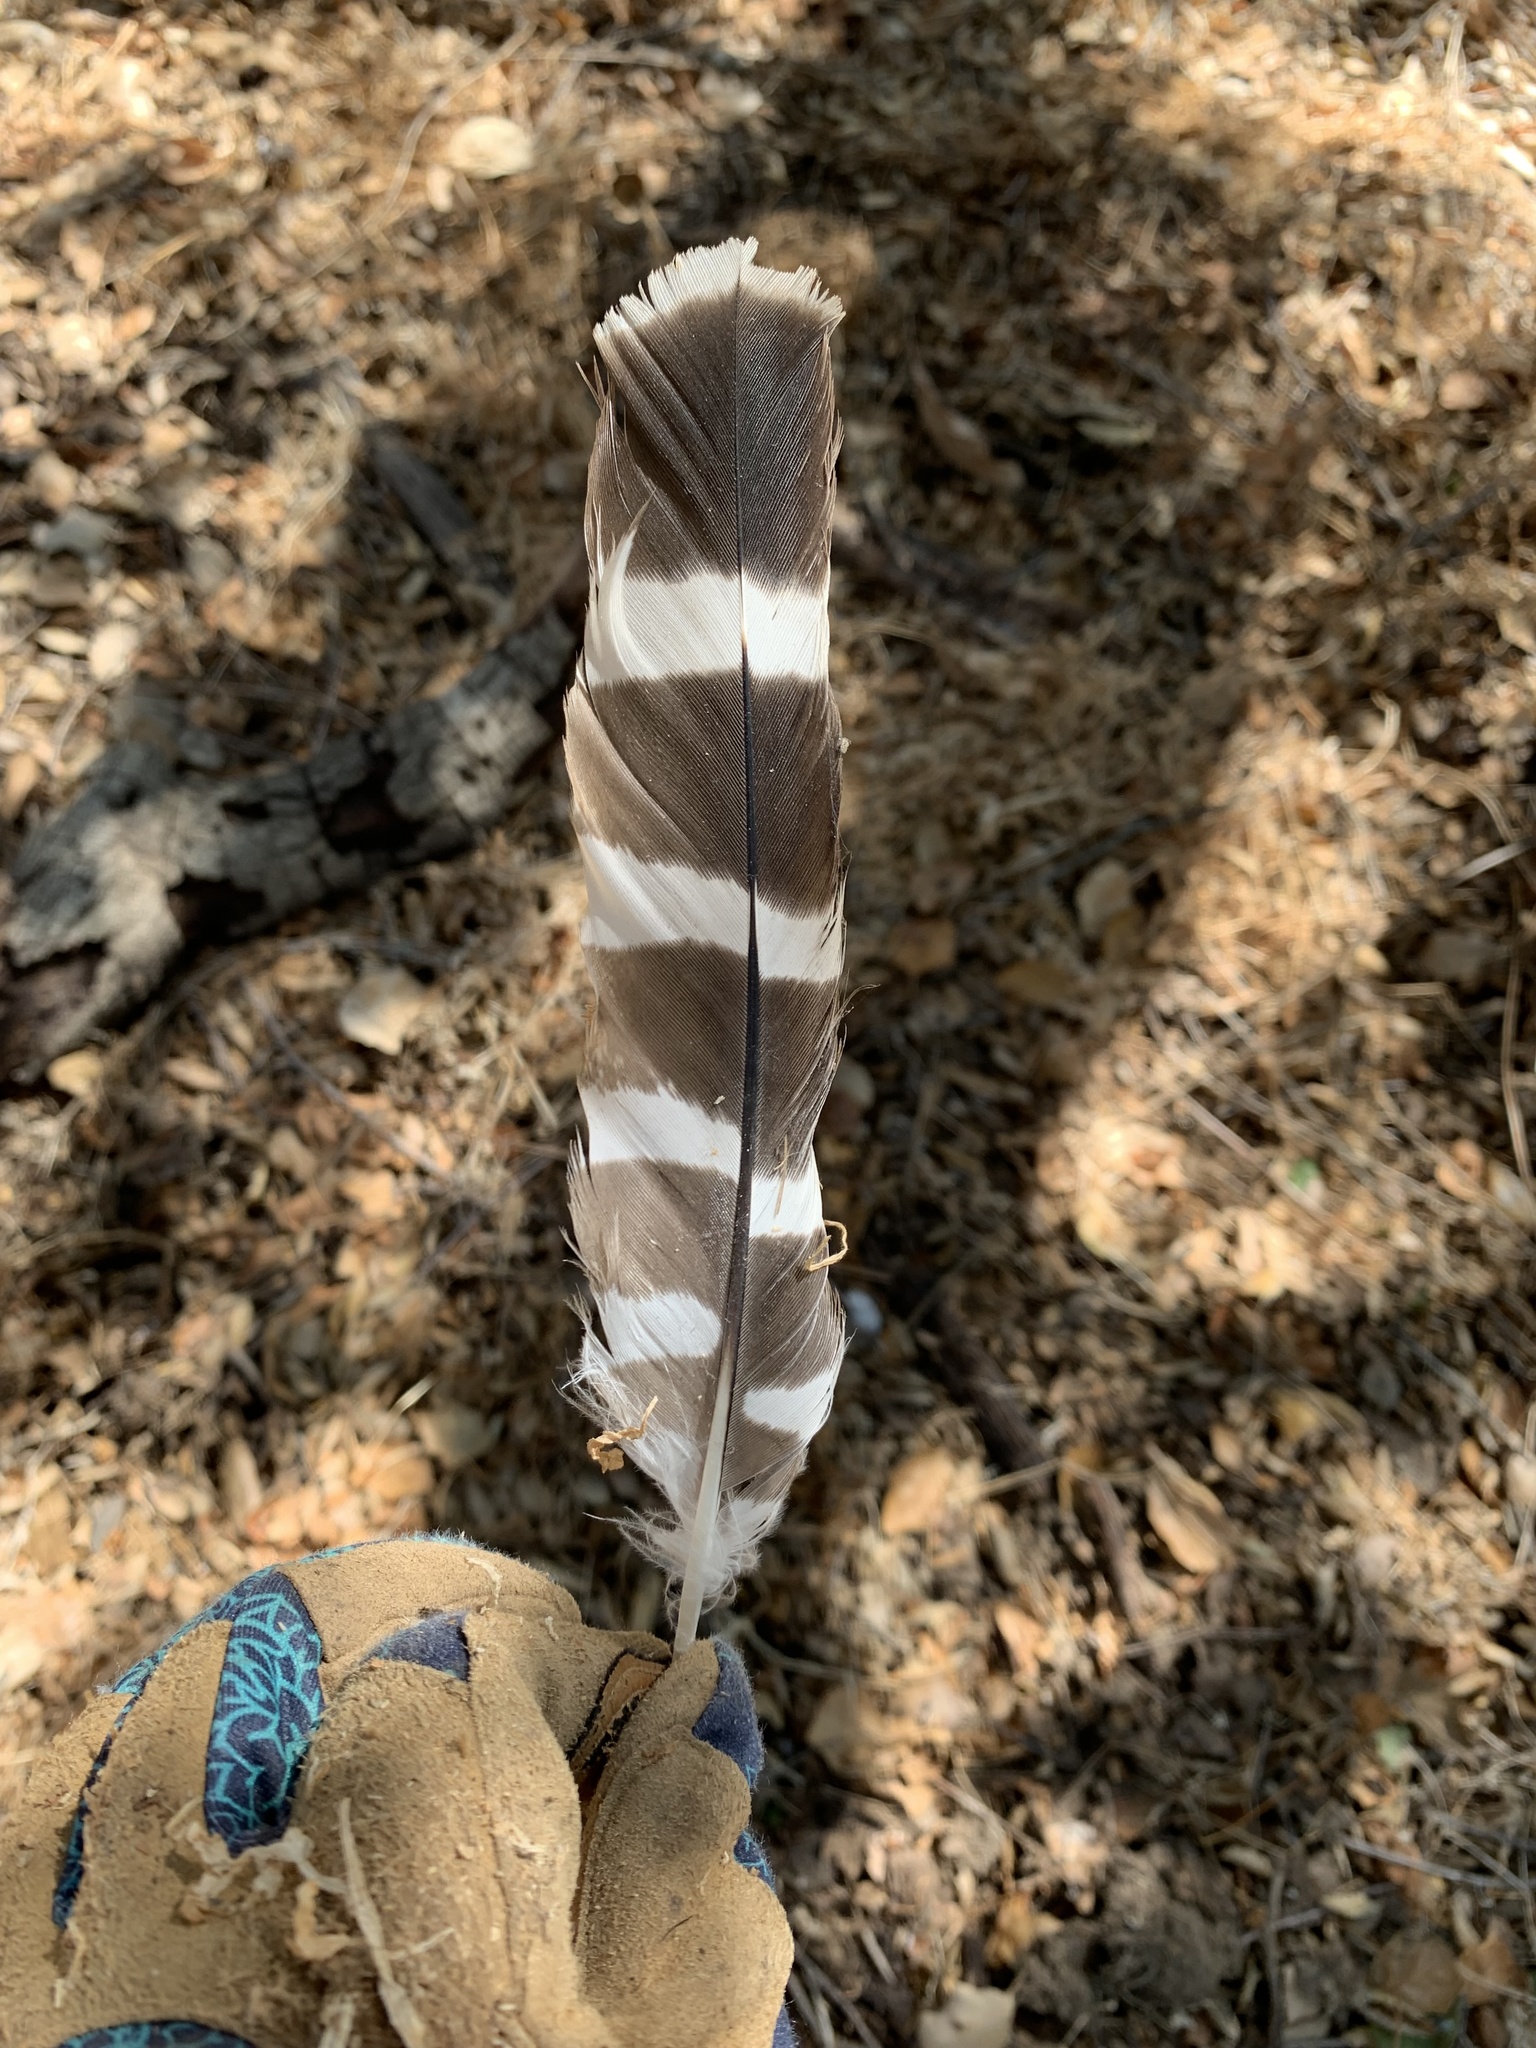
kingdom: Animalia
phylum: Chordata
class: Aves
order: Accipitriformes
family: Accipitridae
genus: Buteo
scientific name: Buteo lineatus
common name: Red-shouldered hawk
